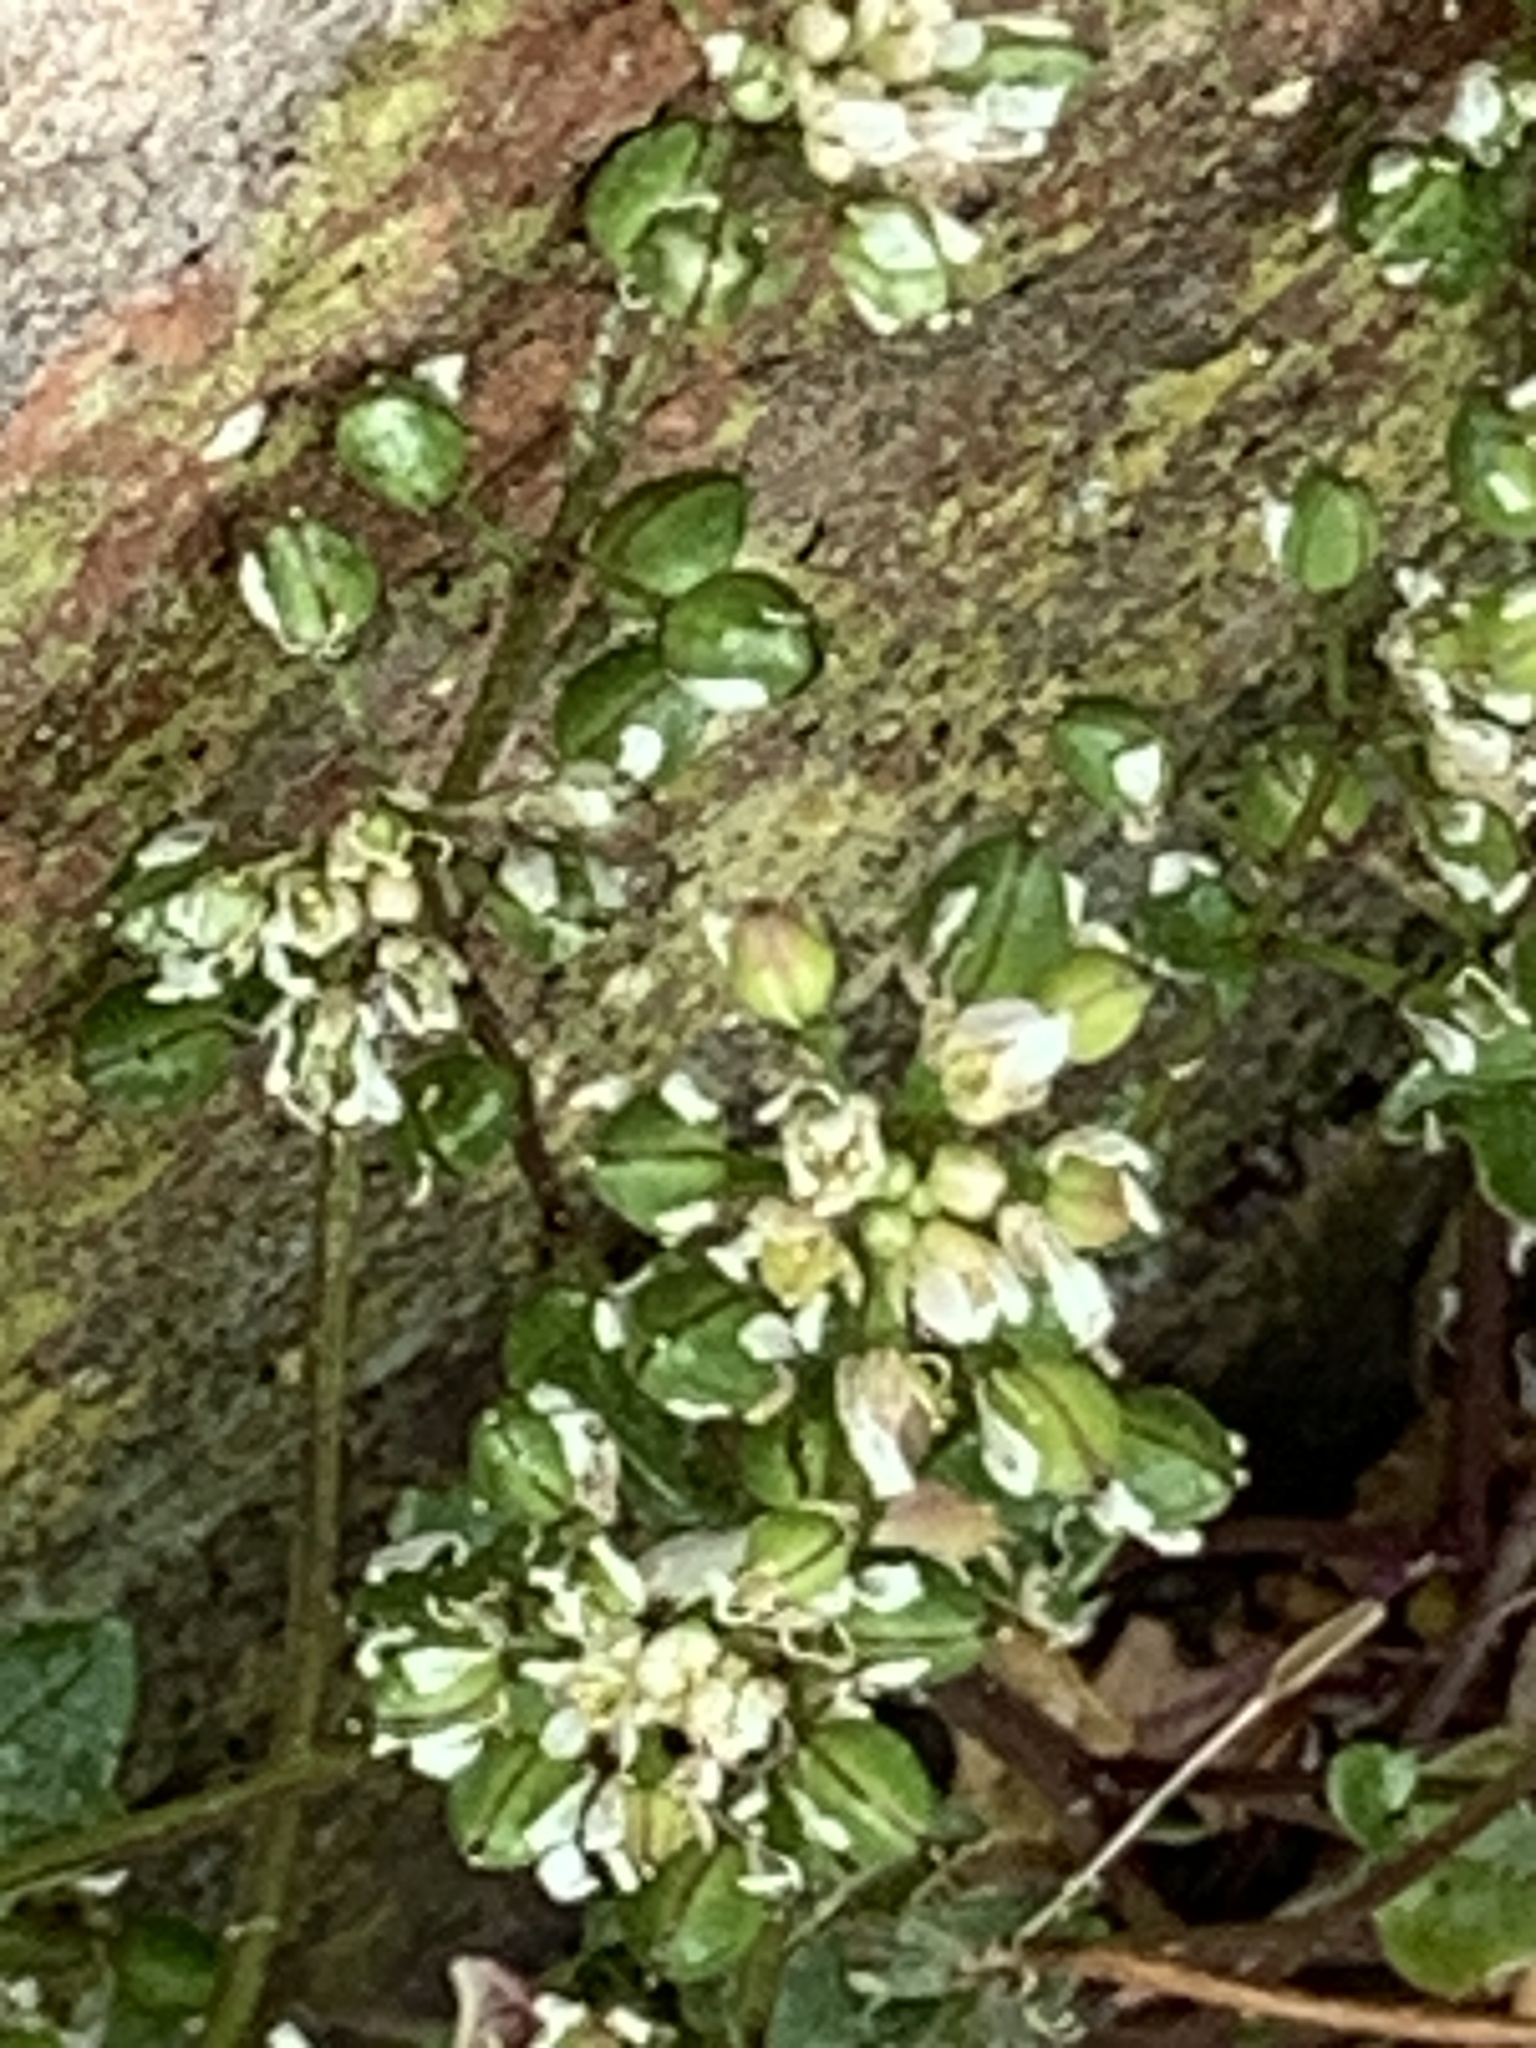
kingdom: Plantae
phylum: Tracheophyta
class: Magnoliopsida
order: Brassicales
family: Brassicaceae
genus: Cochlearia
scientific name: Cochlearia danica
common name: Early scurvygrass
